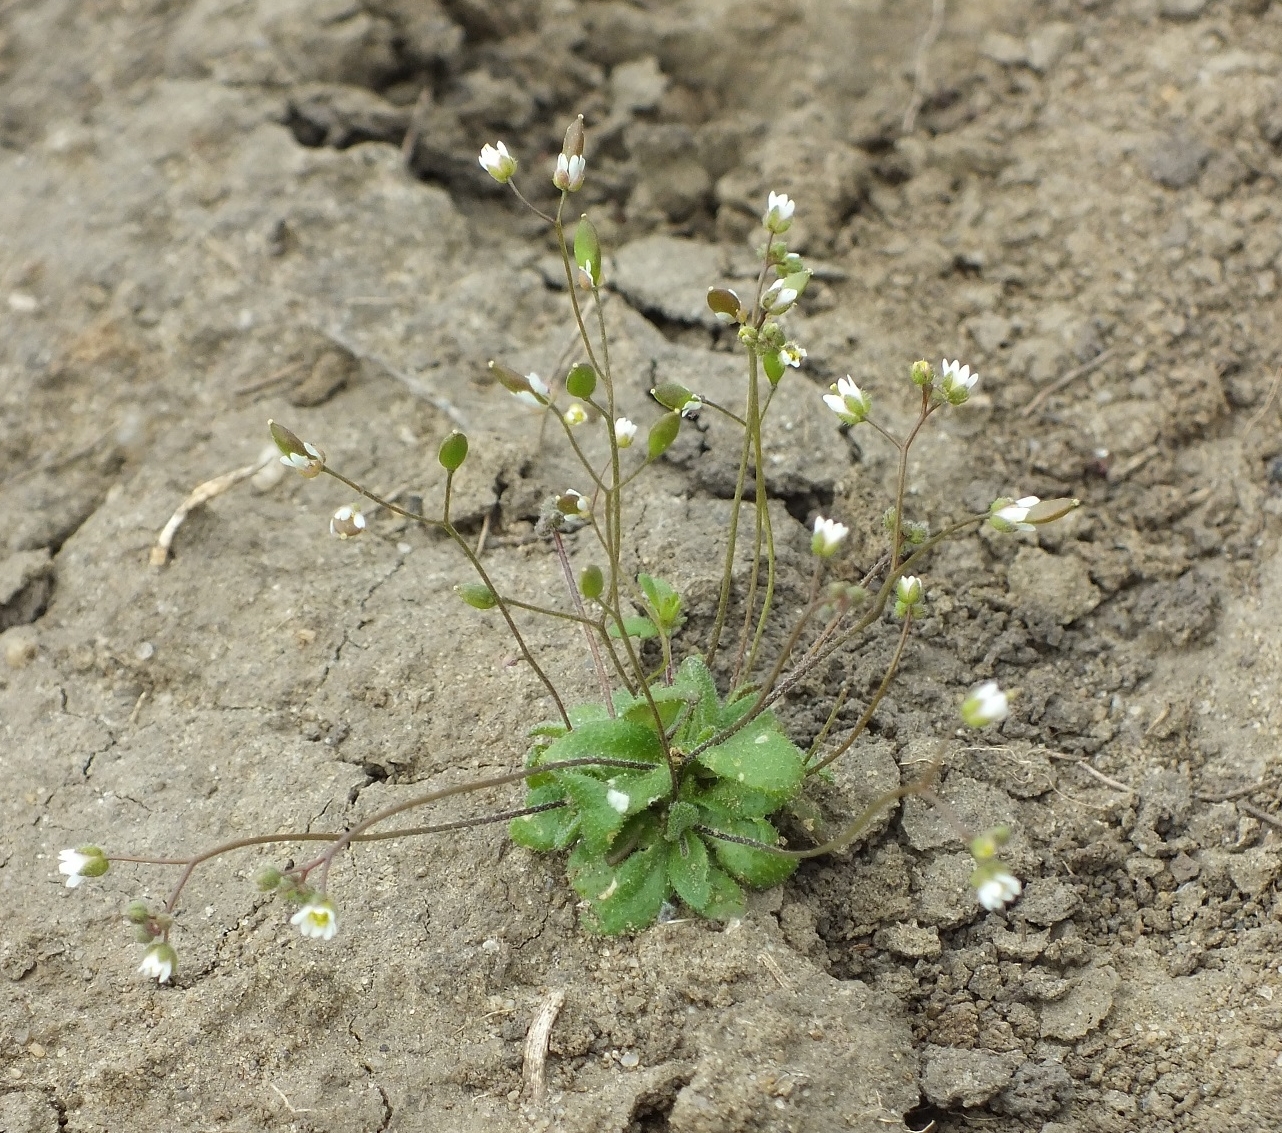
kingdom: Plantae
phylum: Tracheophyta
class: Magnoliopsida
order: Brassicales
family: Brassicaceae
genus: Draba
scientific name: Draba verna
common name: Spring draba
